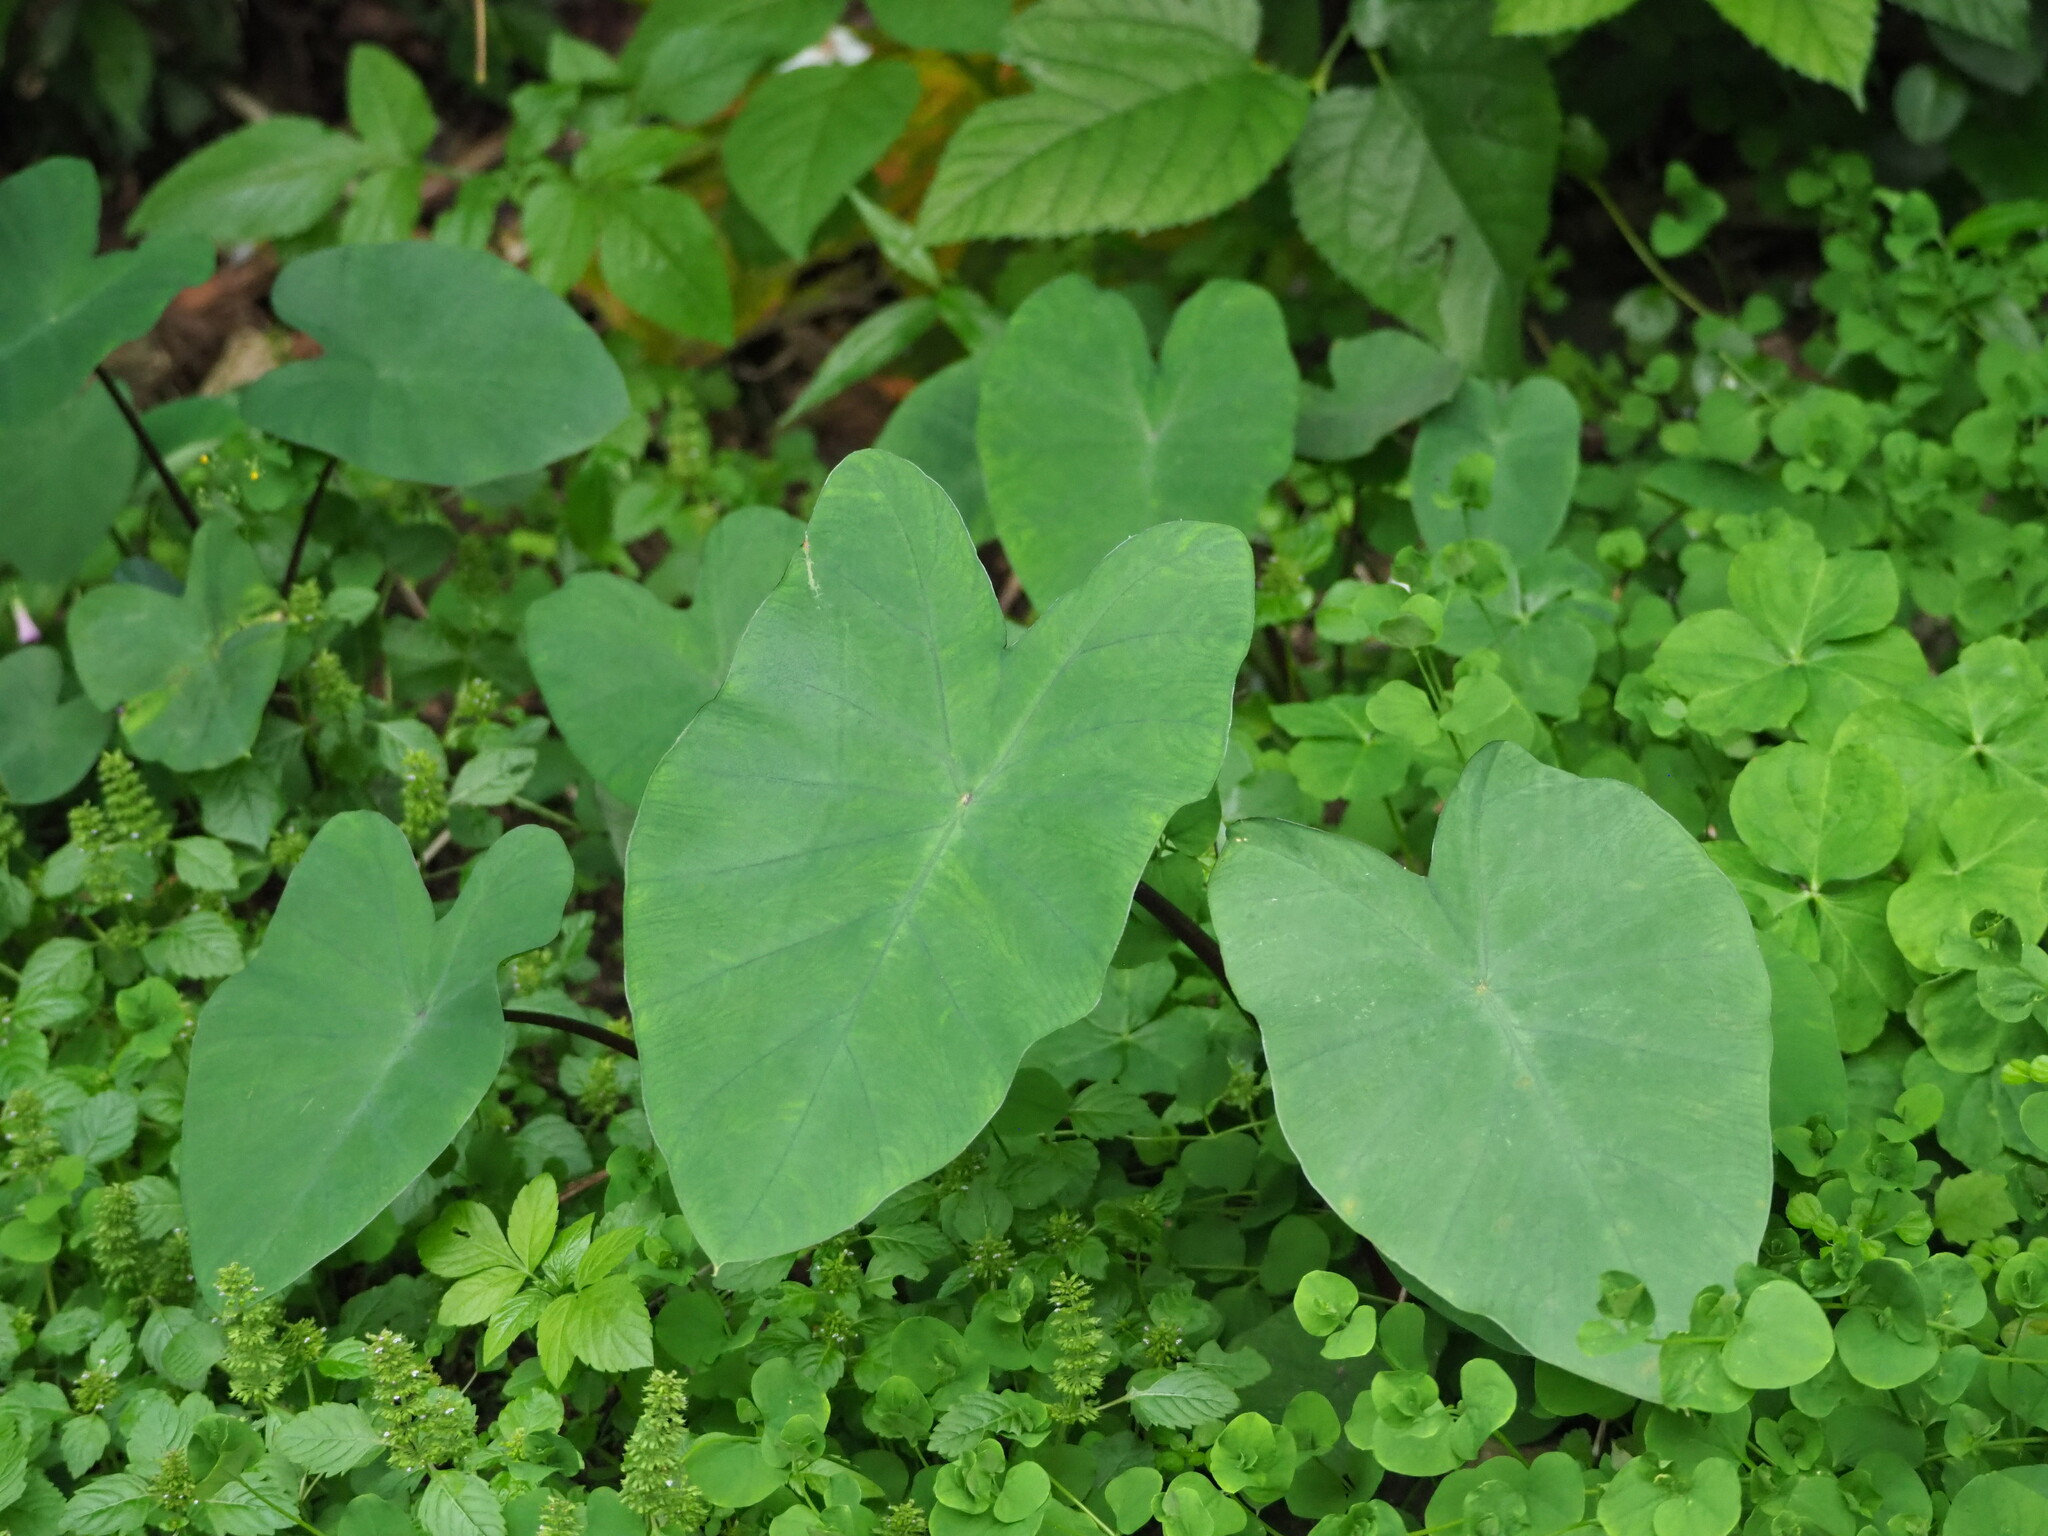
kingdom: Plantae
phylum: Tracheophyta
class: Liliopsida
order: Alismatales
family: Araceae
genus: Colocasia
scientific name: Colocasia esculenta
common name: Taro
